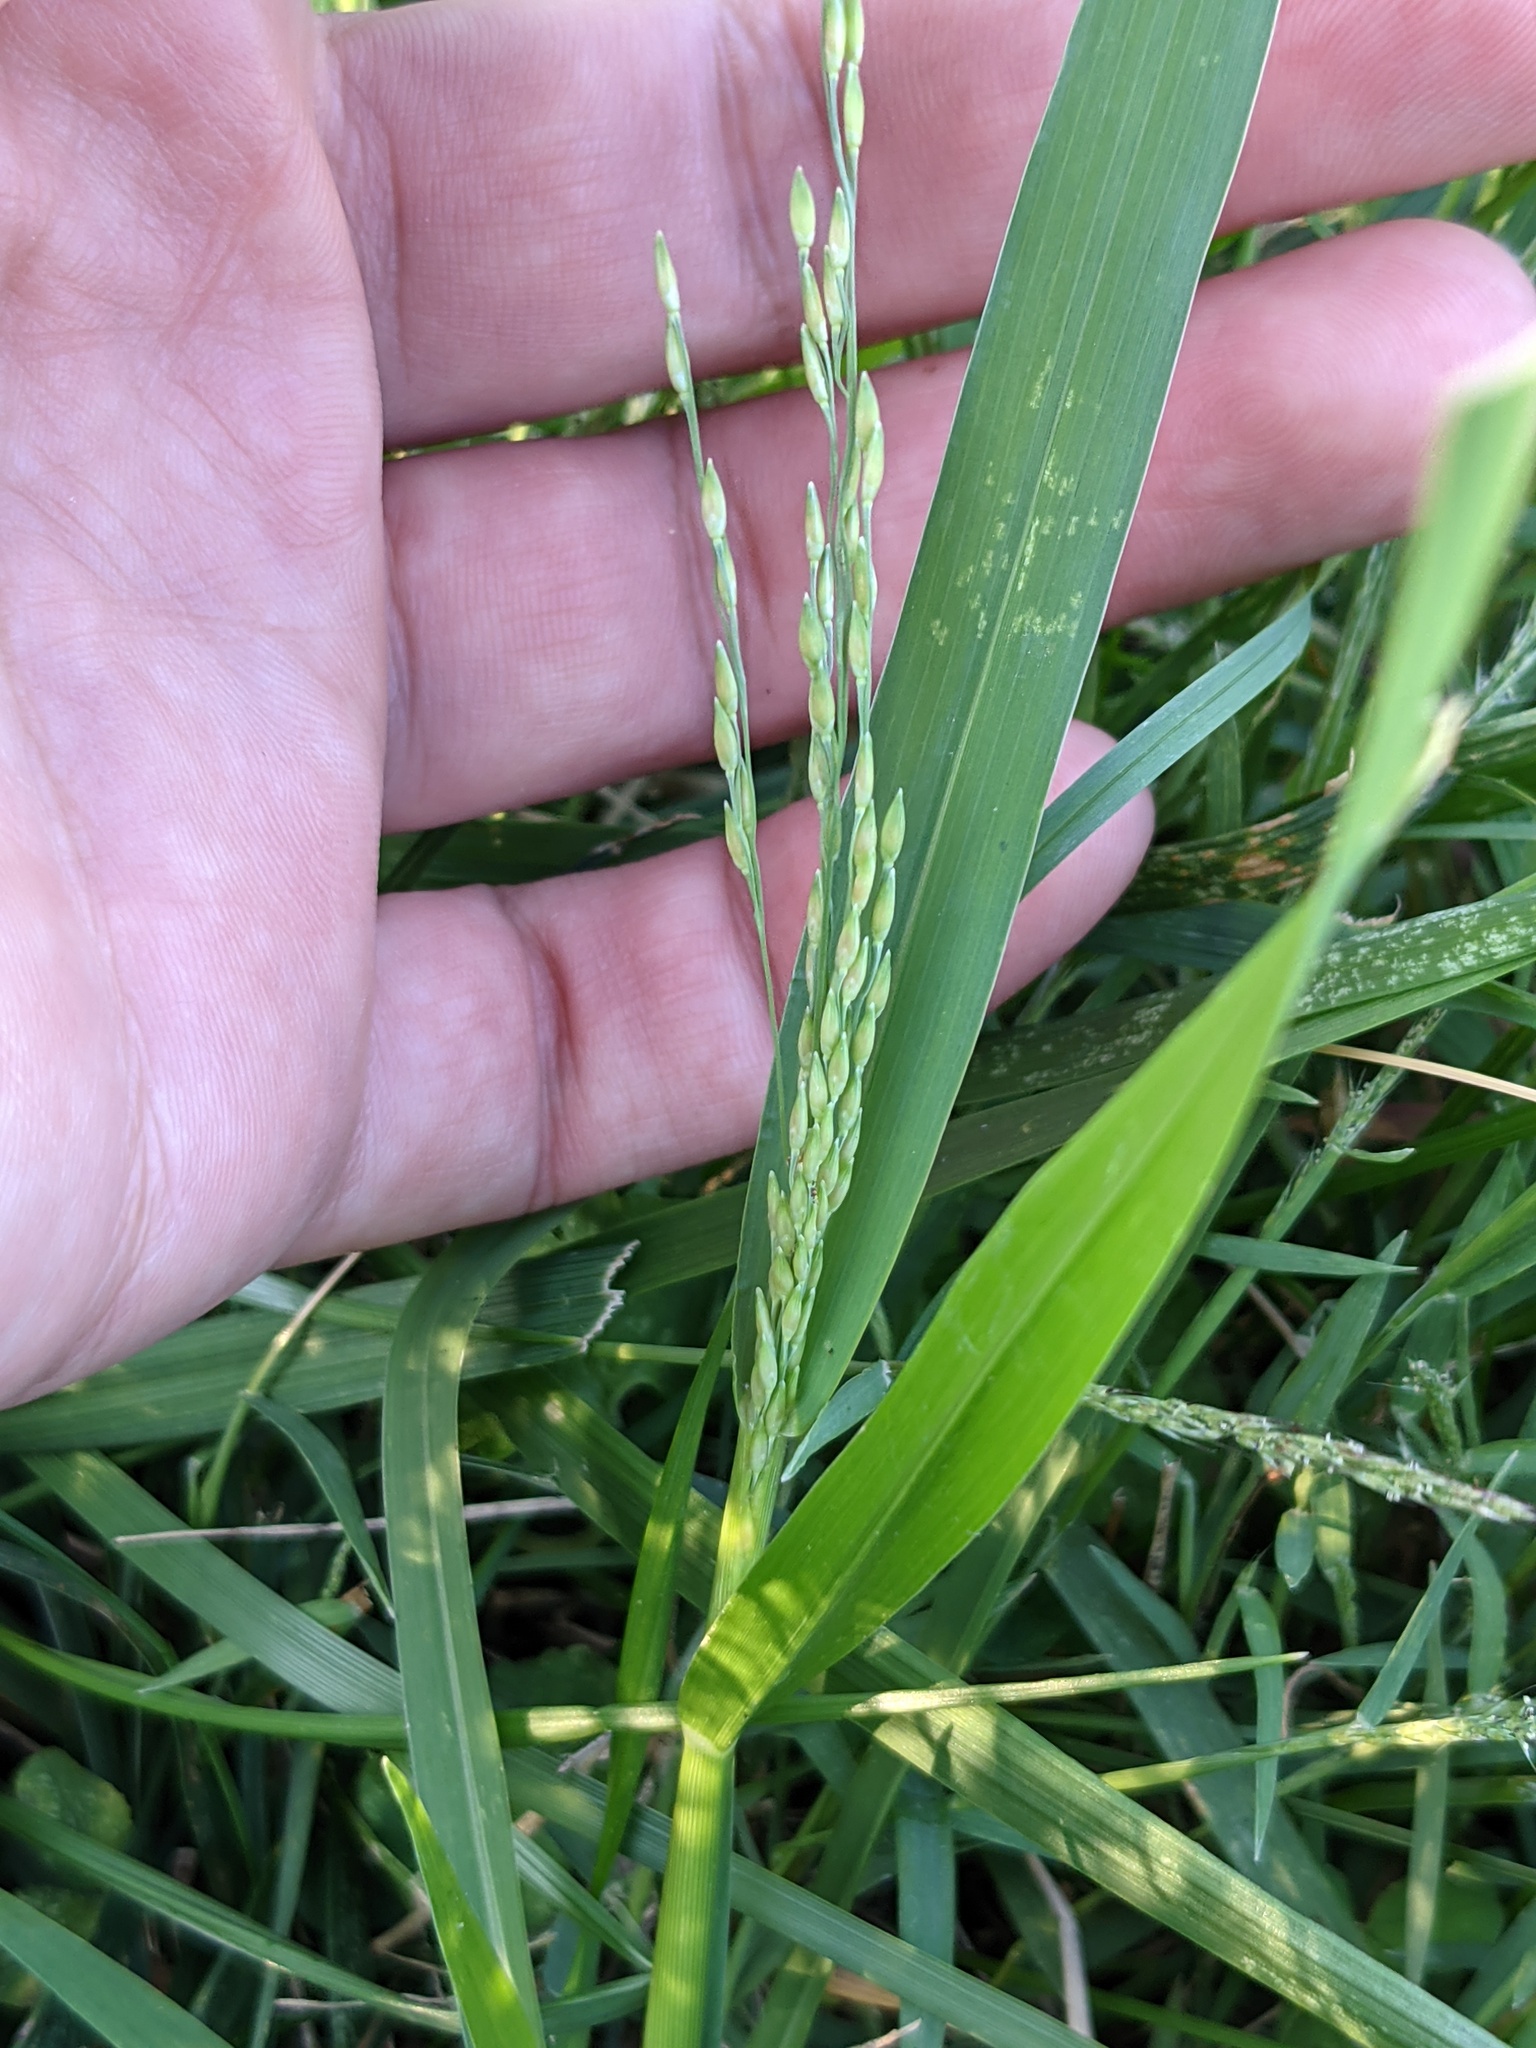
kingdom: Plantae
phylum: Tracheophyta
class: Liliopsida
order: Poales
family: Poaceae
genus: Panicum
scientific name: Panicum dichotomiflorum
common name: Autumn millet
